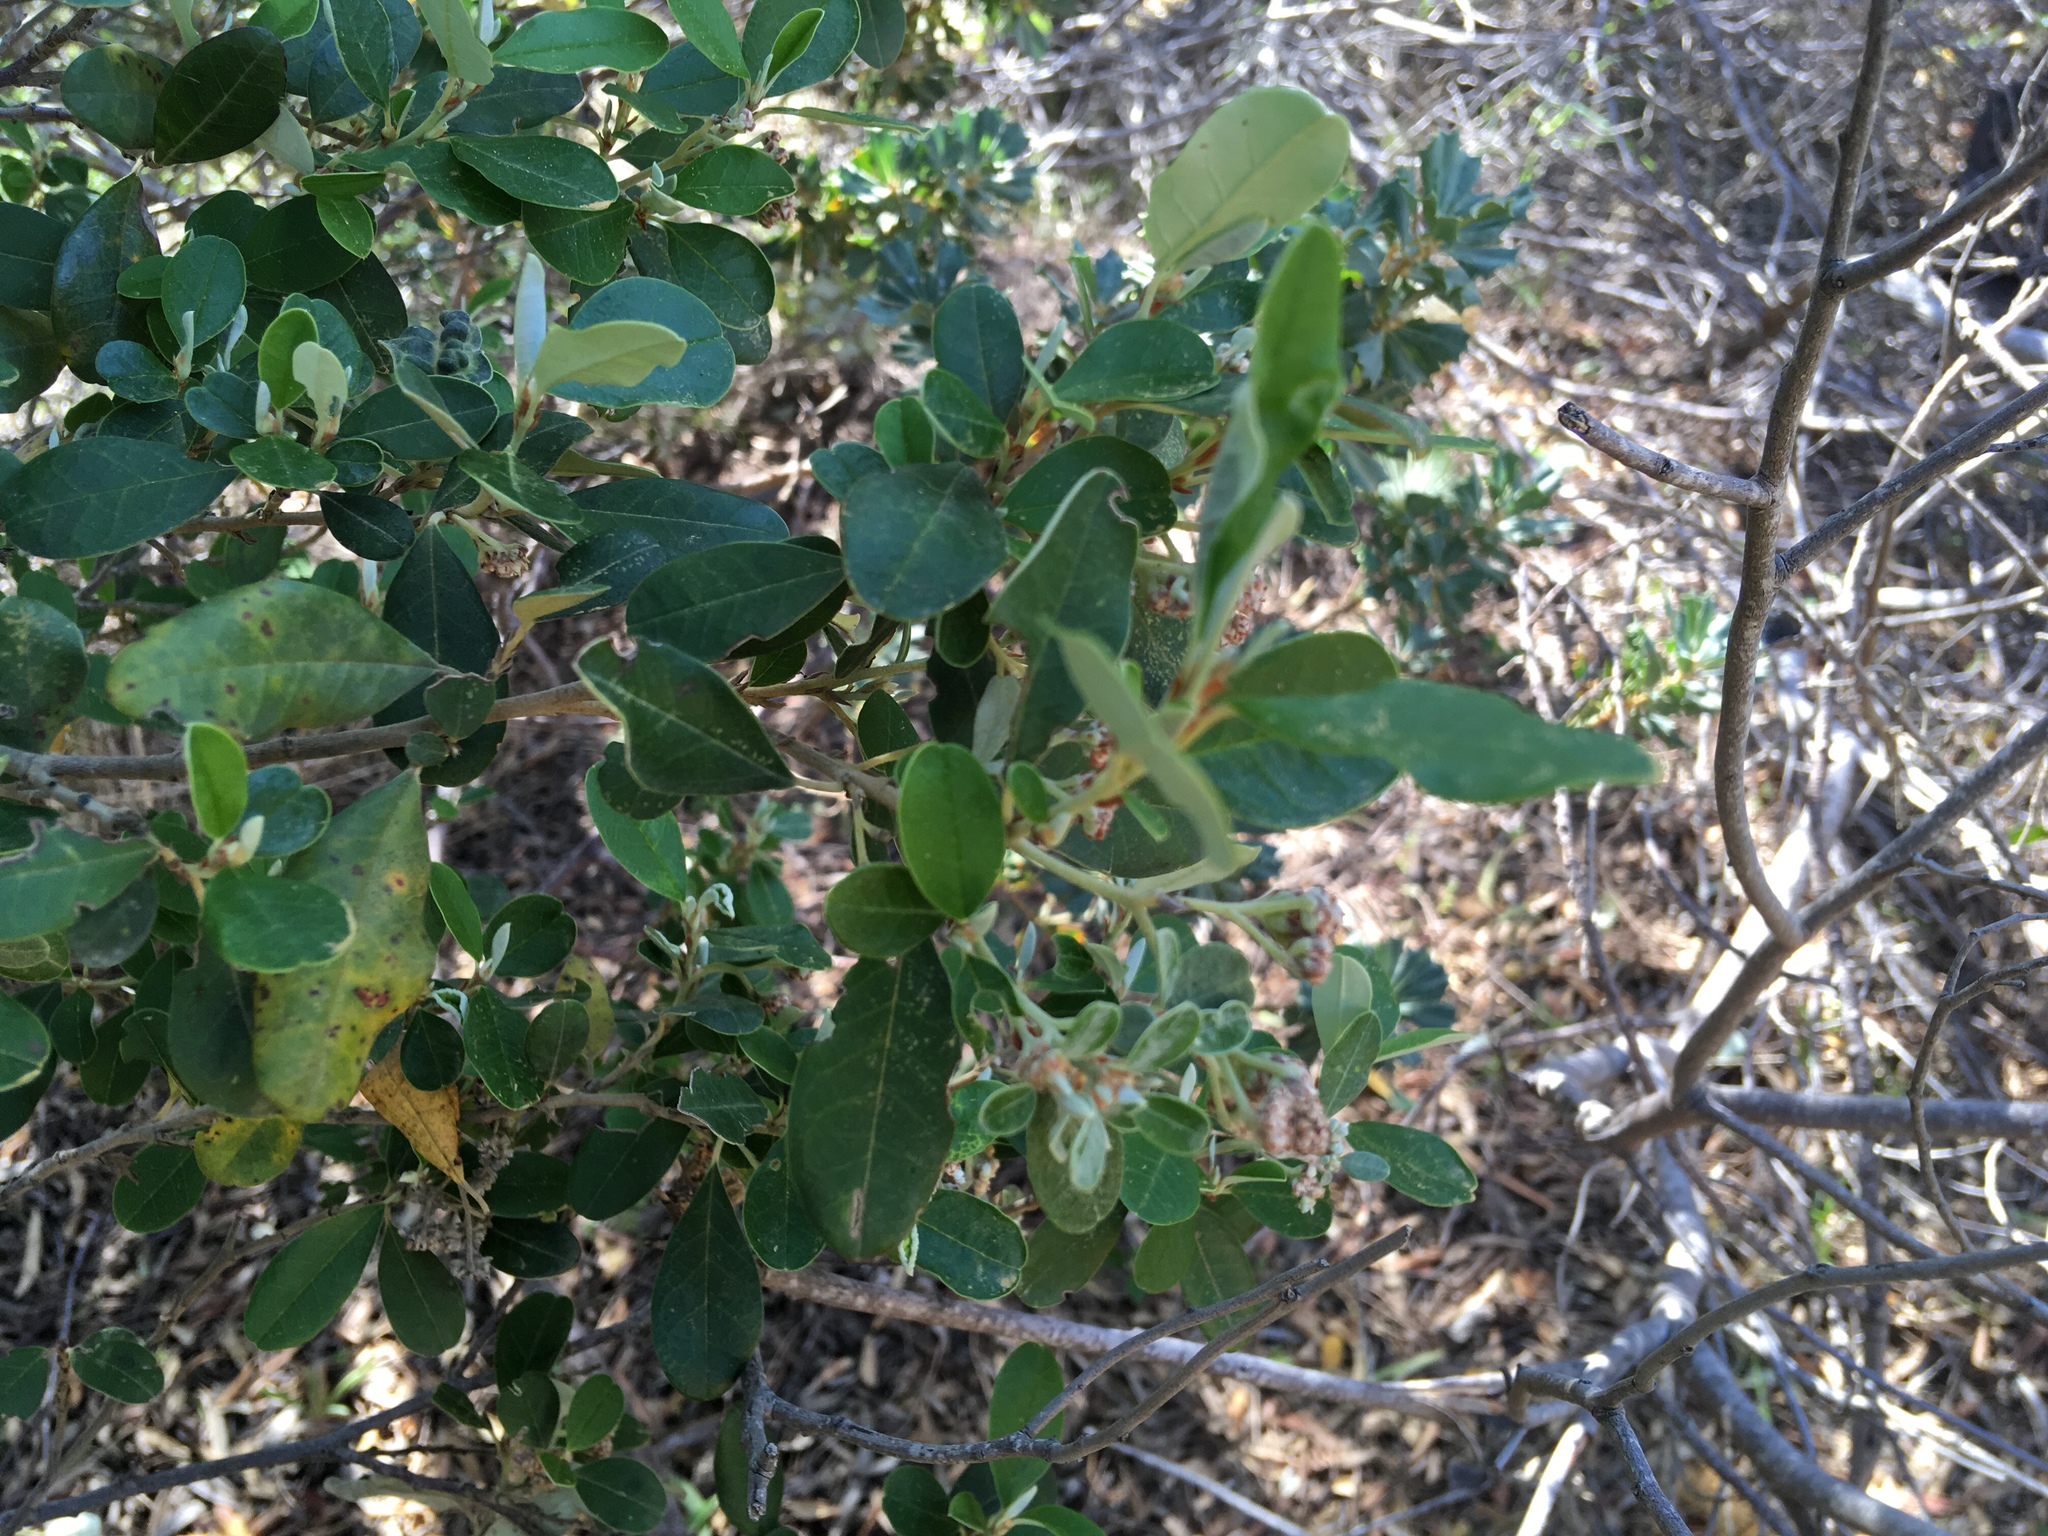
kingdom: Plantae
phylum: Tracheophyta
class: Magnoliopsida
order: Rosales
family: Rhamnaceae
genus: Spyridium
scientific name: Spyridium globulosum
